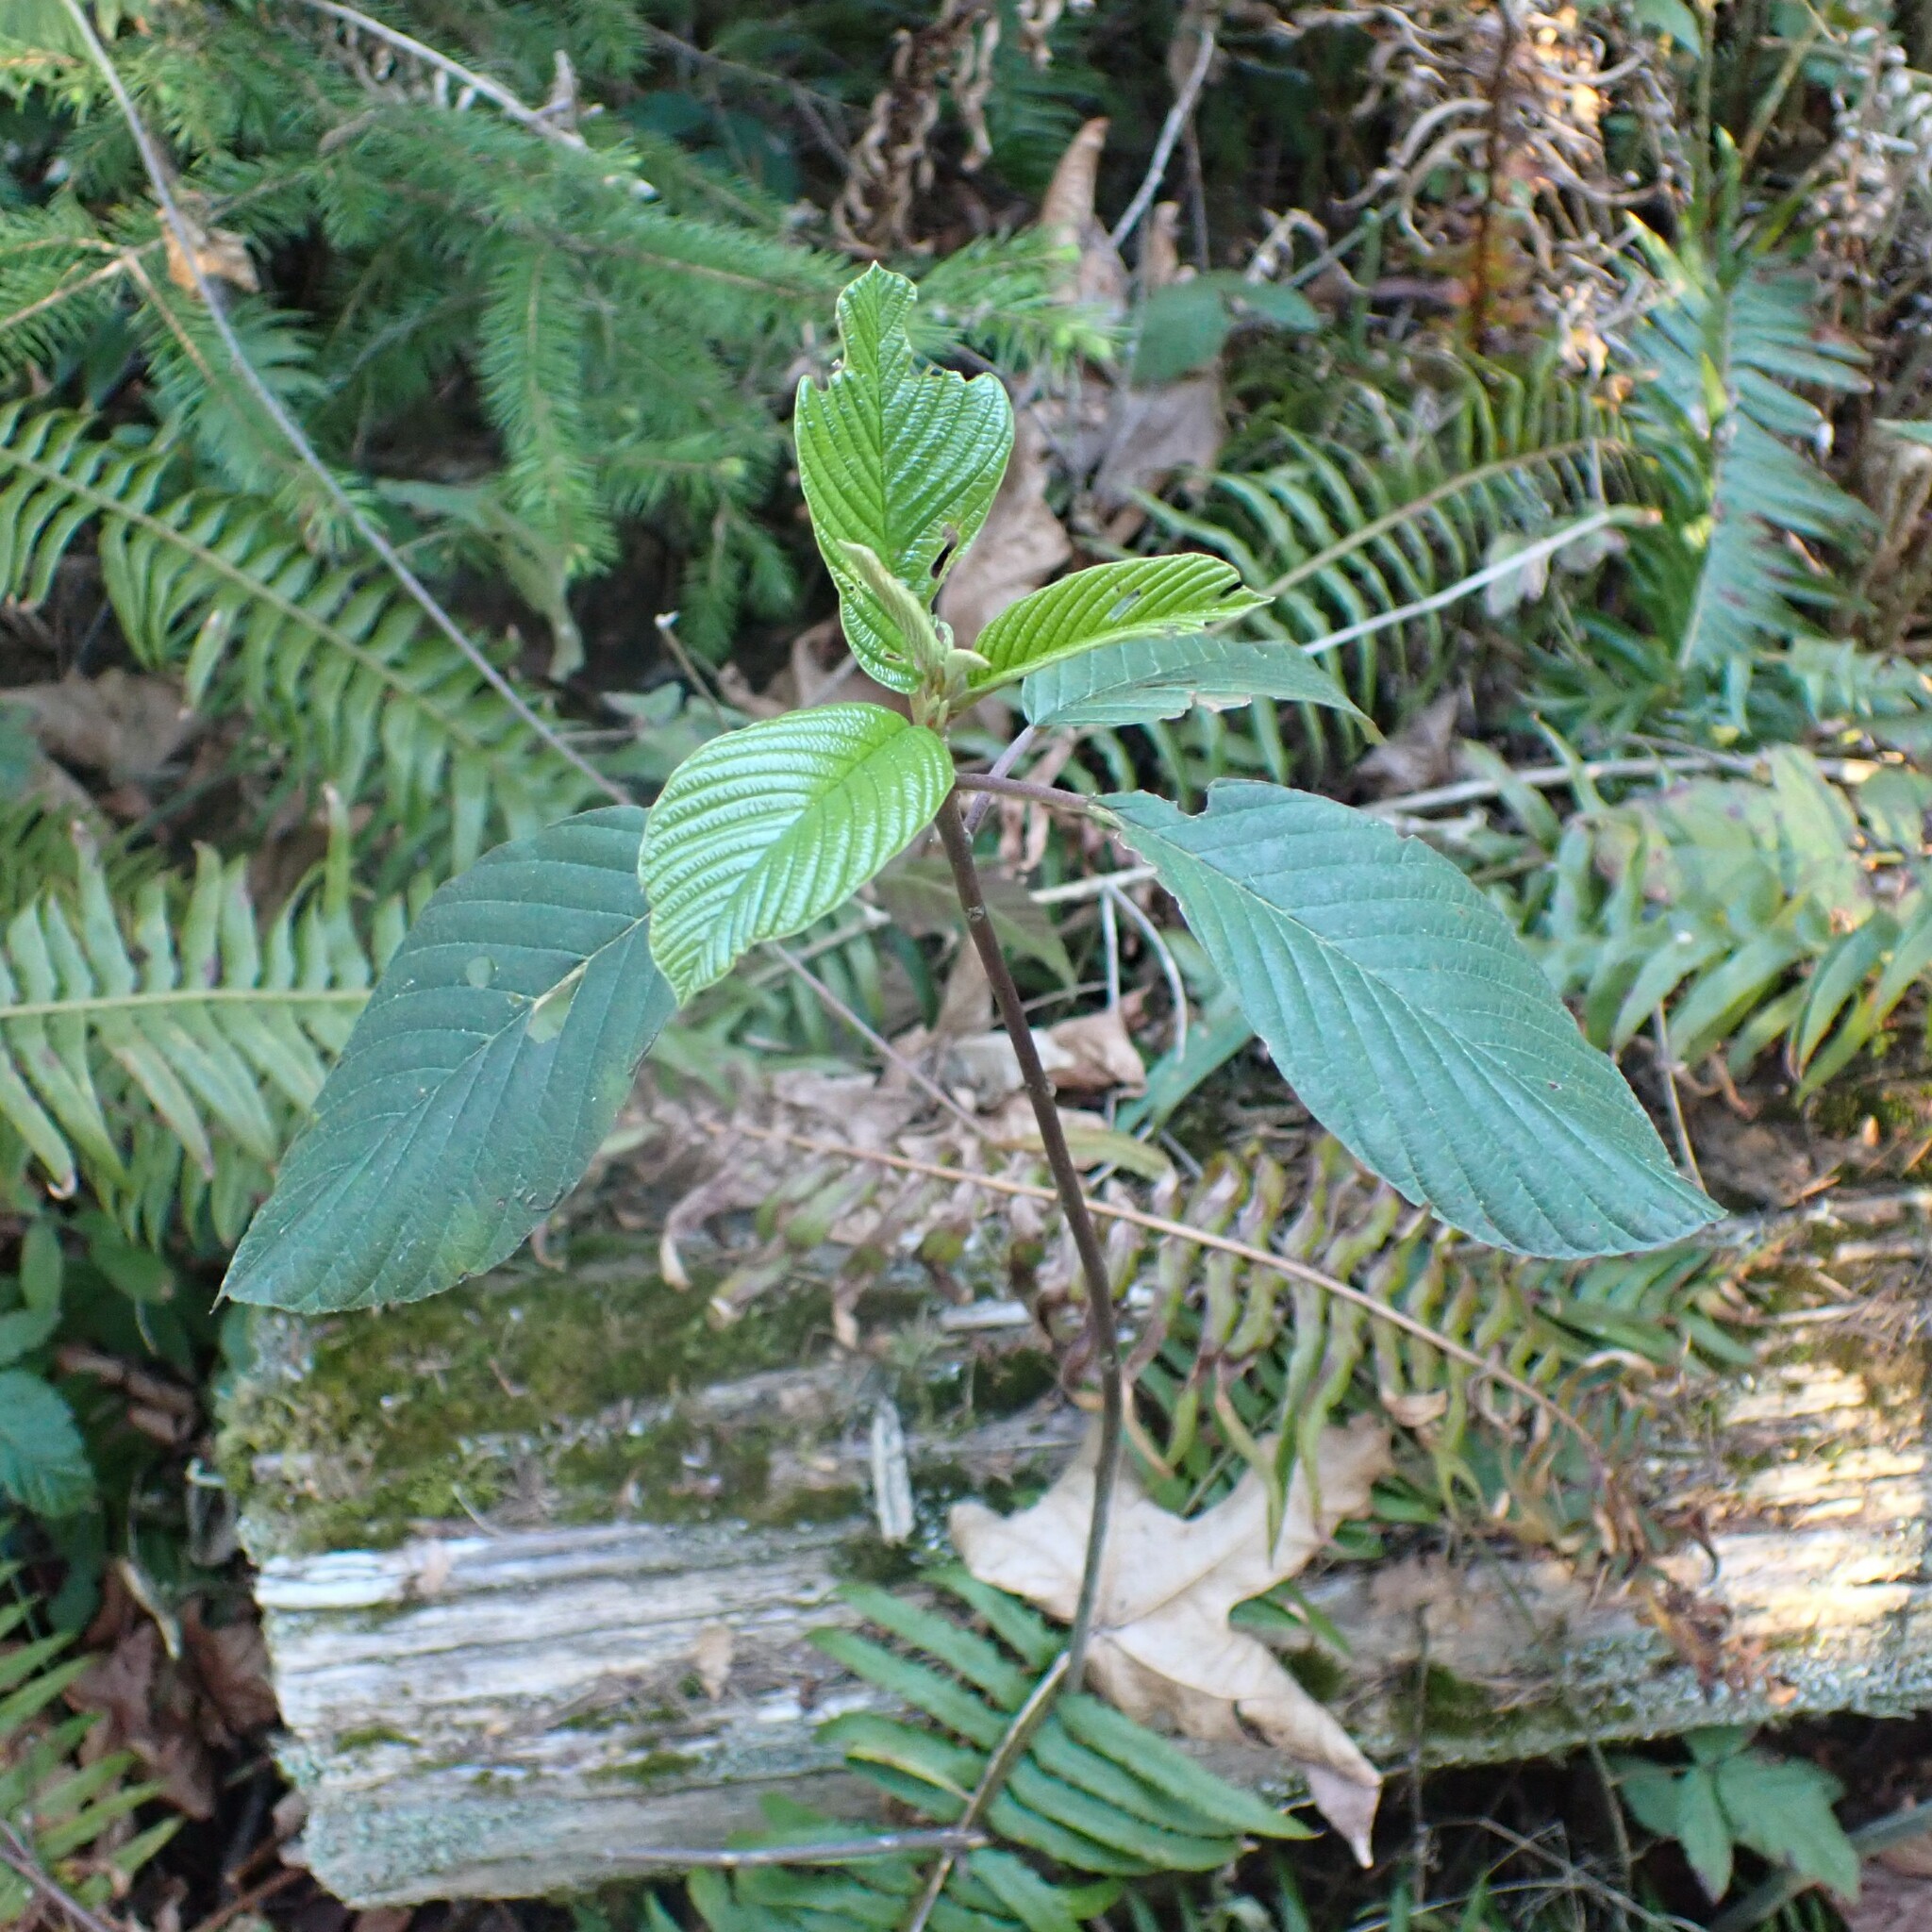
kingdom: Plantae
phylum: Tracheophyta
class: Magnoliopsida
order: Rosales
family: Rhamnaceae
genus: Frangula
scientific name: Frangula purshiana
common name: Cascara buckthorn
